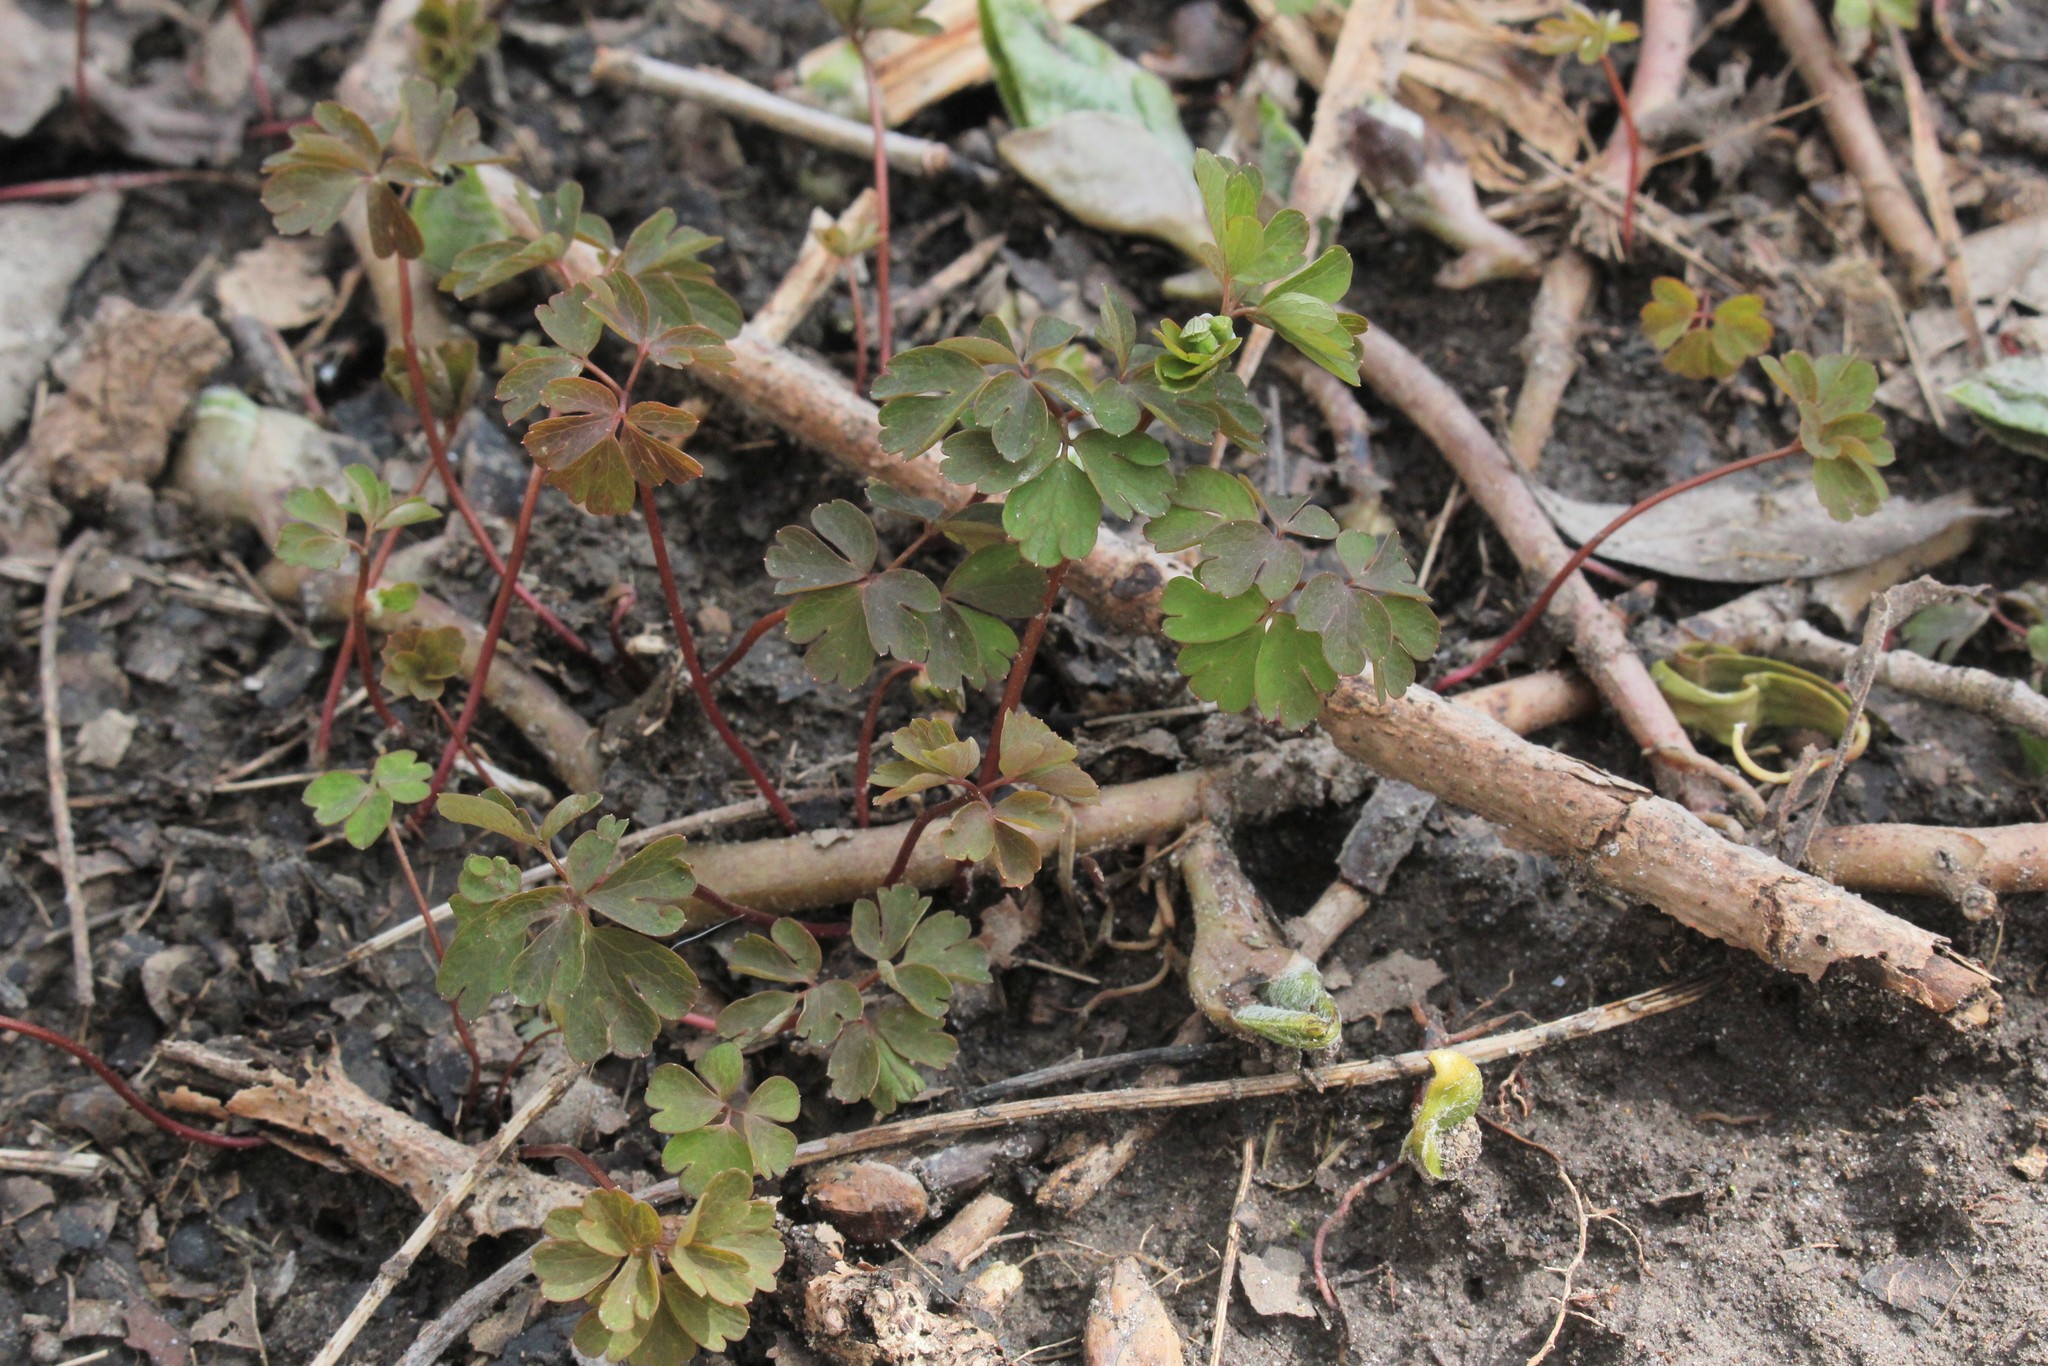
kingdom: Plantae
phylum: Tracheophyta
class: Magnoliopsida
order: Ranunculales
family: Ranunculaceae
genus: Enemion
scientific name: Enemion biternatum
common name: Eastern false rue-anemone
